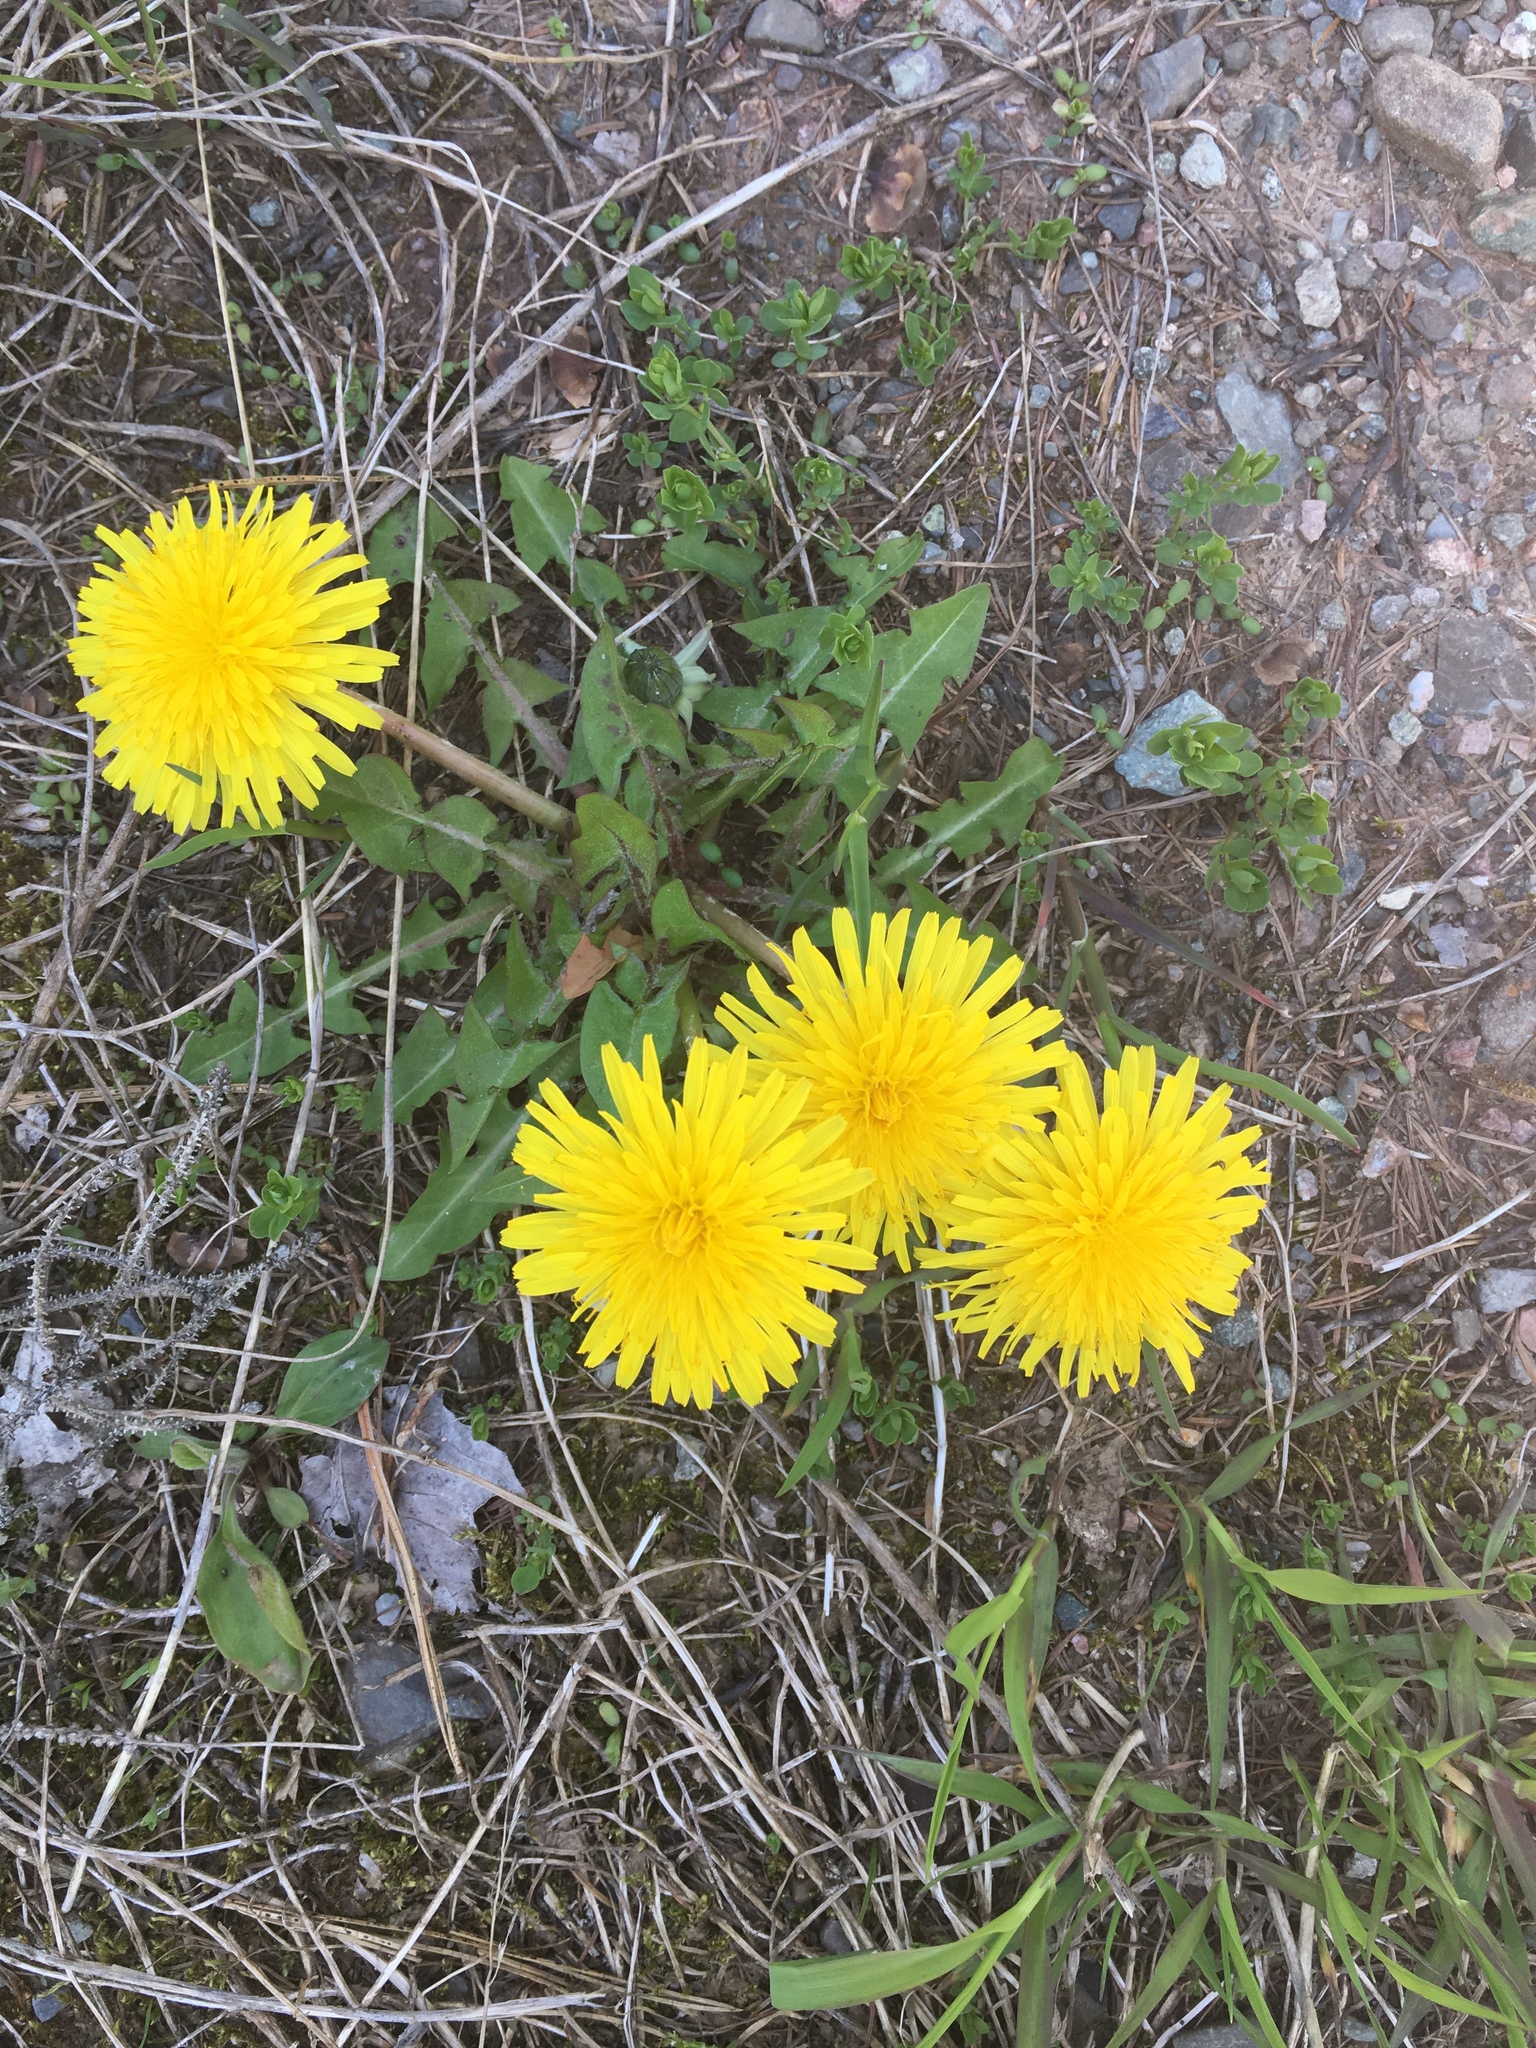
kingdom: Plantae
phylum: Tracheophyta
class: Magnoliopsida
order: Asterales
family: Asteraceae
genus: Taraxacum
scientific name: Taraxacum officinale
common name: Common dandelion
